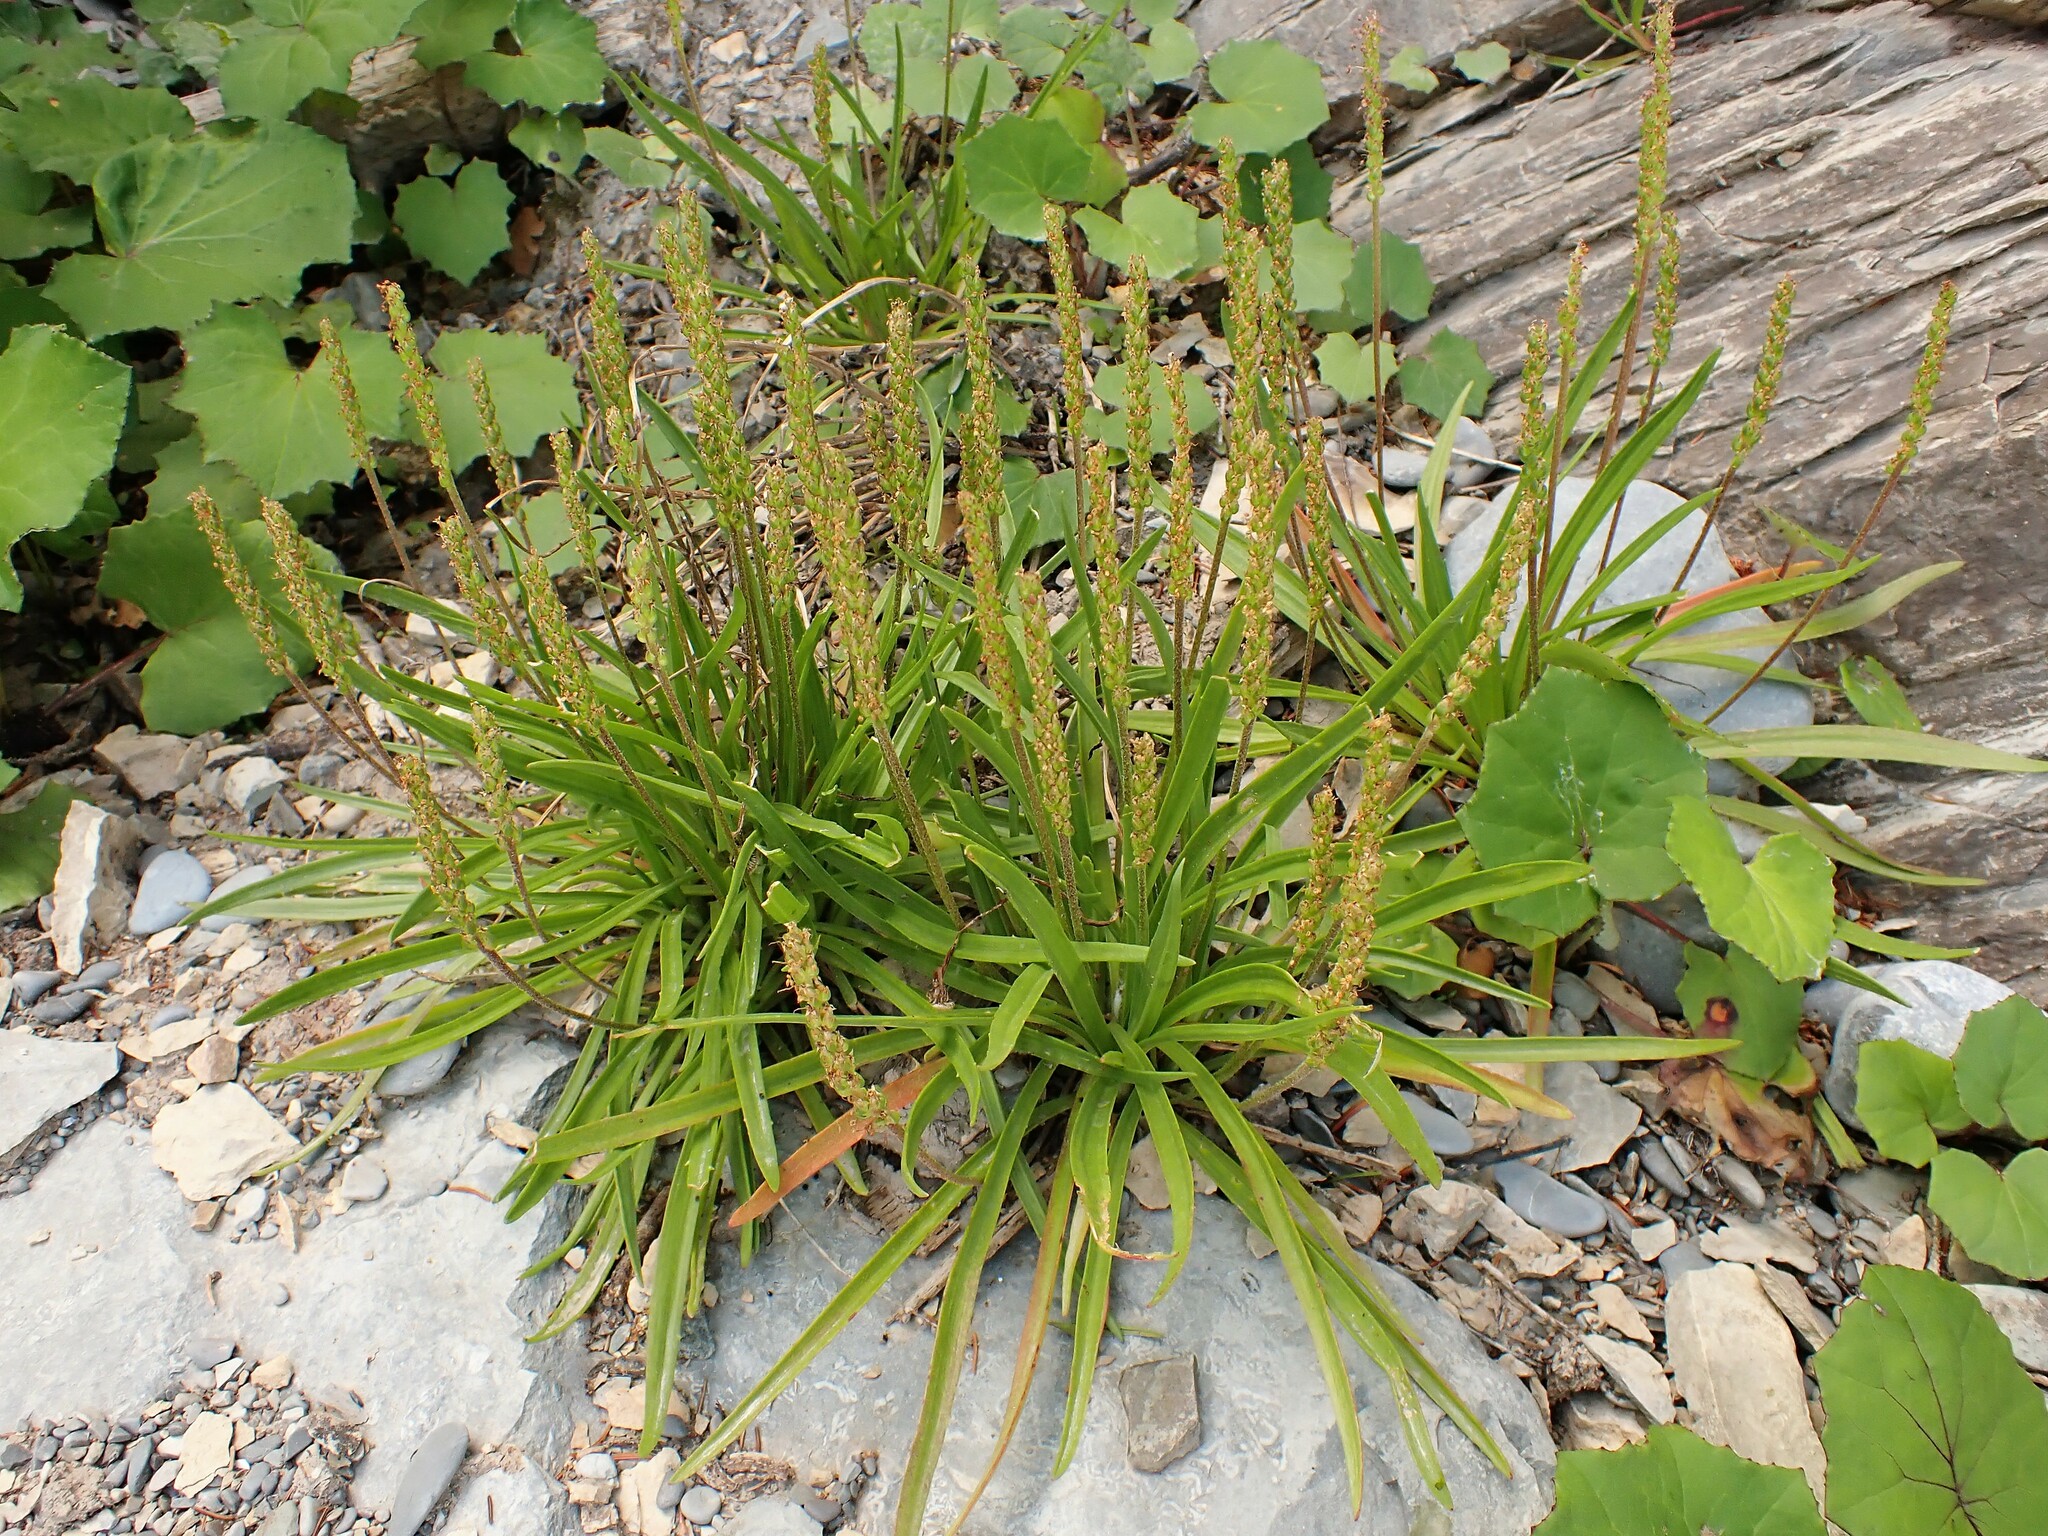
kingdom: Plantae
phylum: Tracheophyta
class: Magnoliopsida
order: Lamiales
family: Plantaginaceae
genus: Plantago
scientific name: Plantago maritima
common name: Sea plantain
